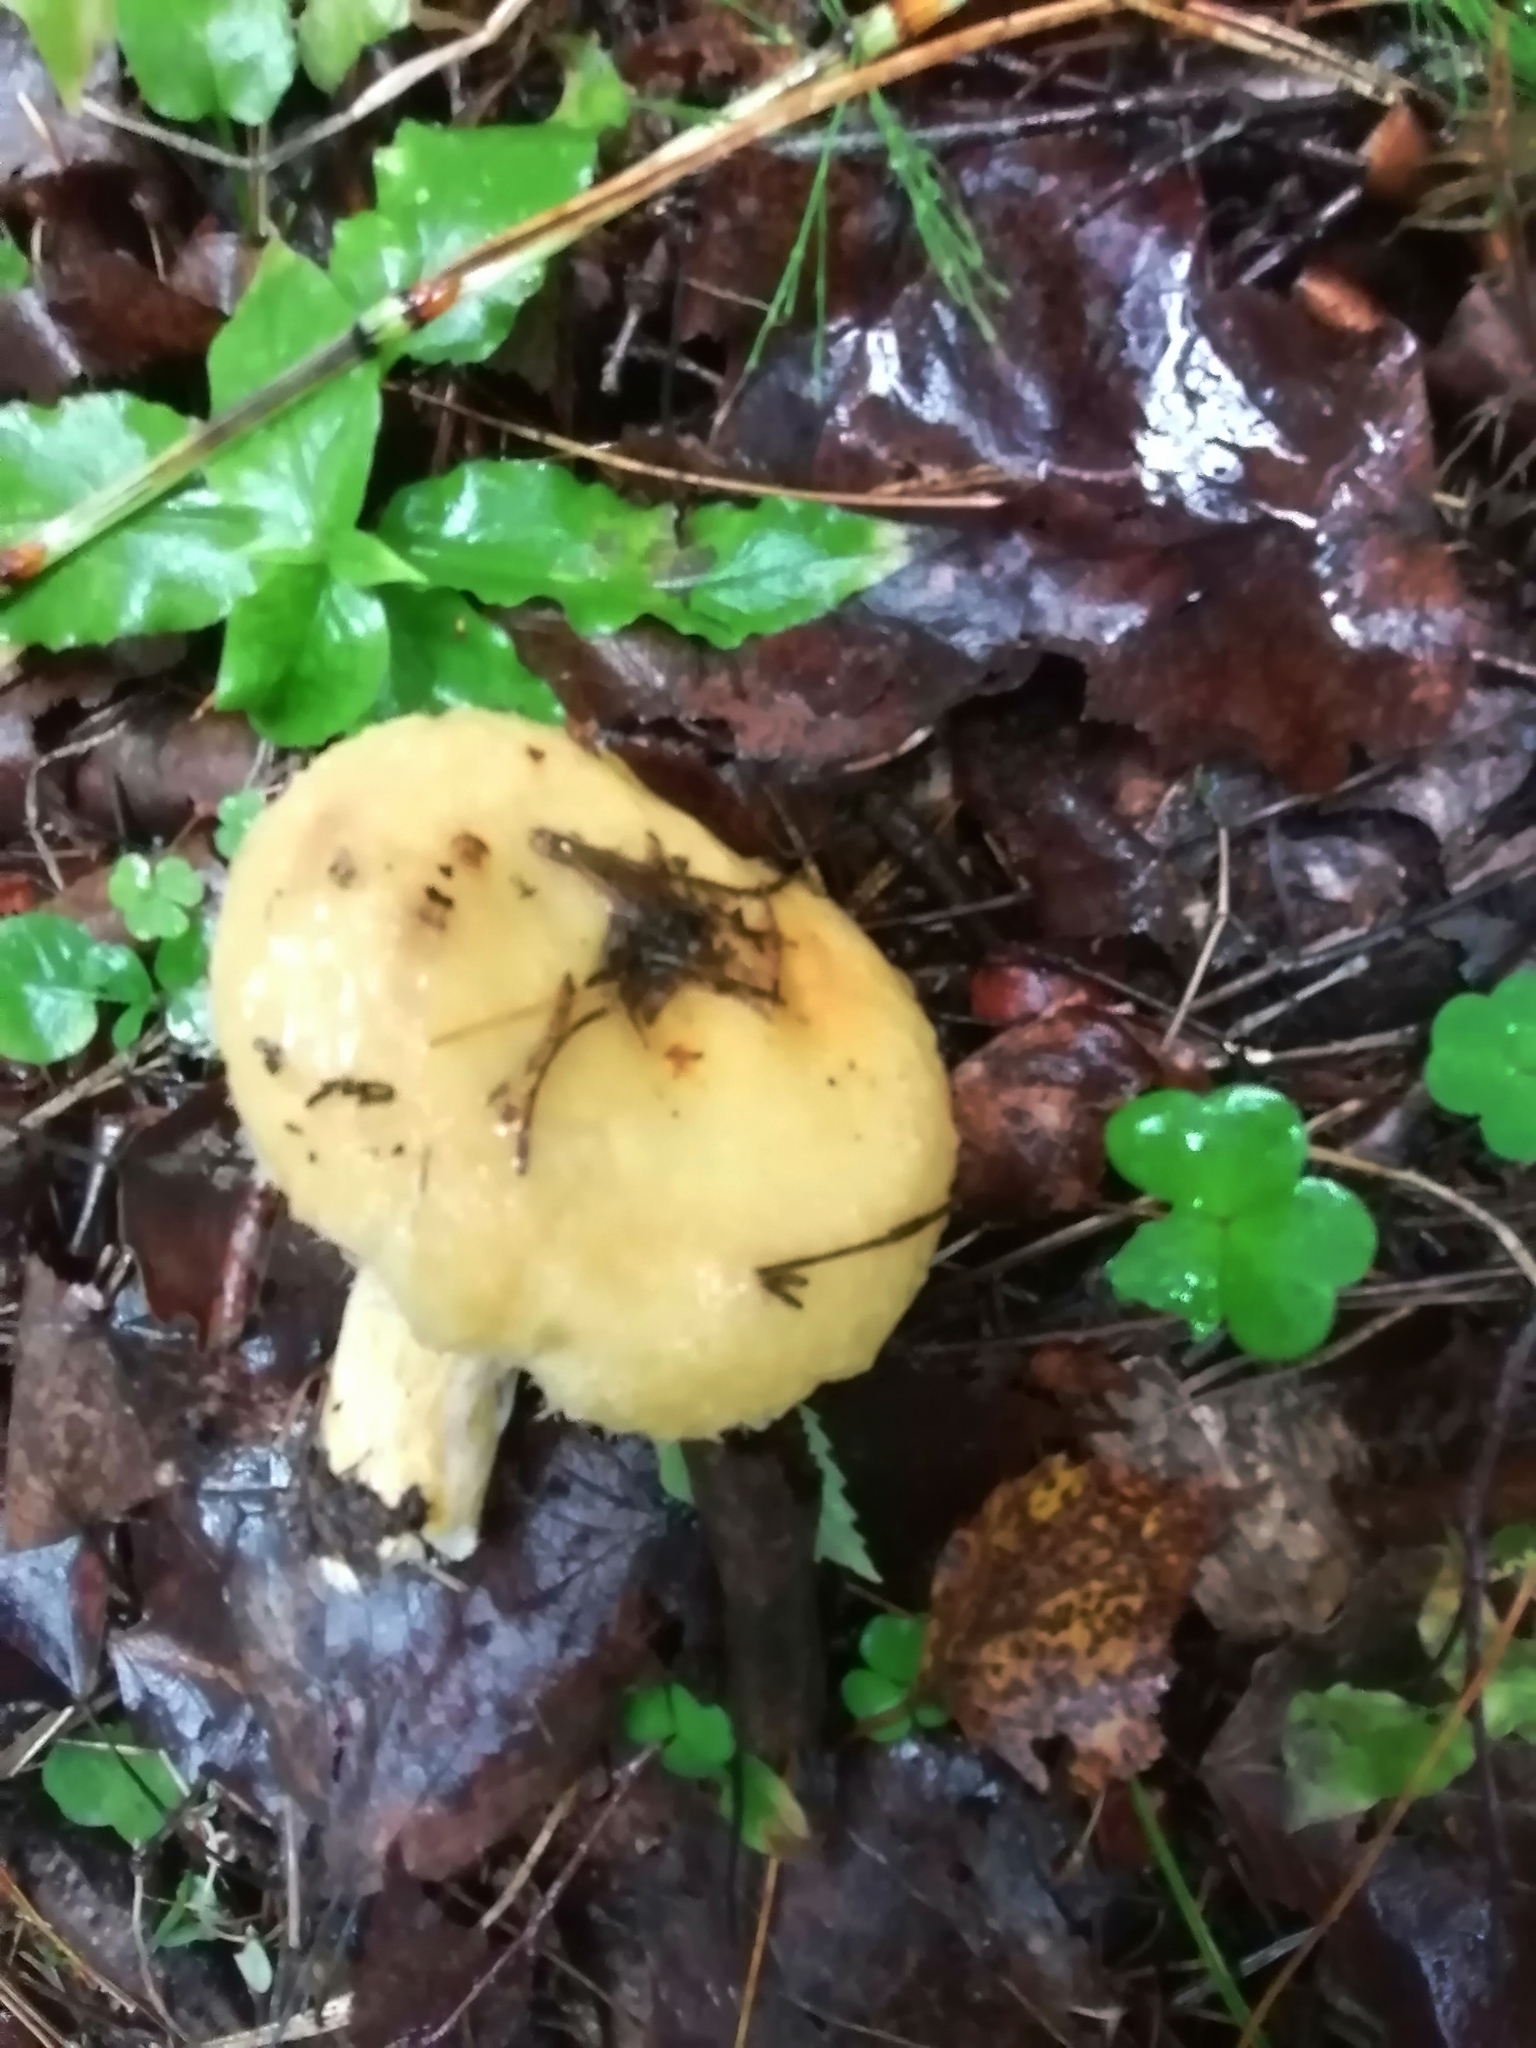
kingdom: Fungi
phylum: Basidiomycota
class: Agaricomycetes
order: Russulales
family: Russulaceae
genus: Lactarius
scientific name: Lactarius repraesentaneus
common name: Yellow bearded milkcap
